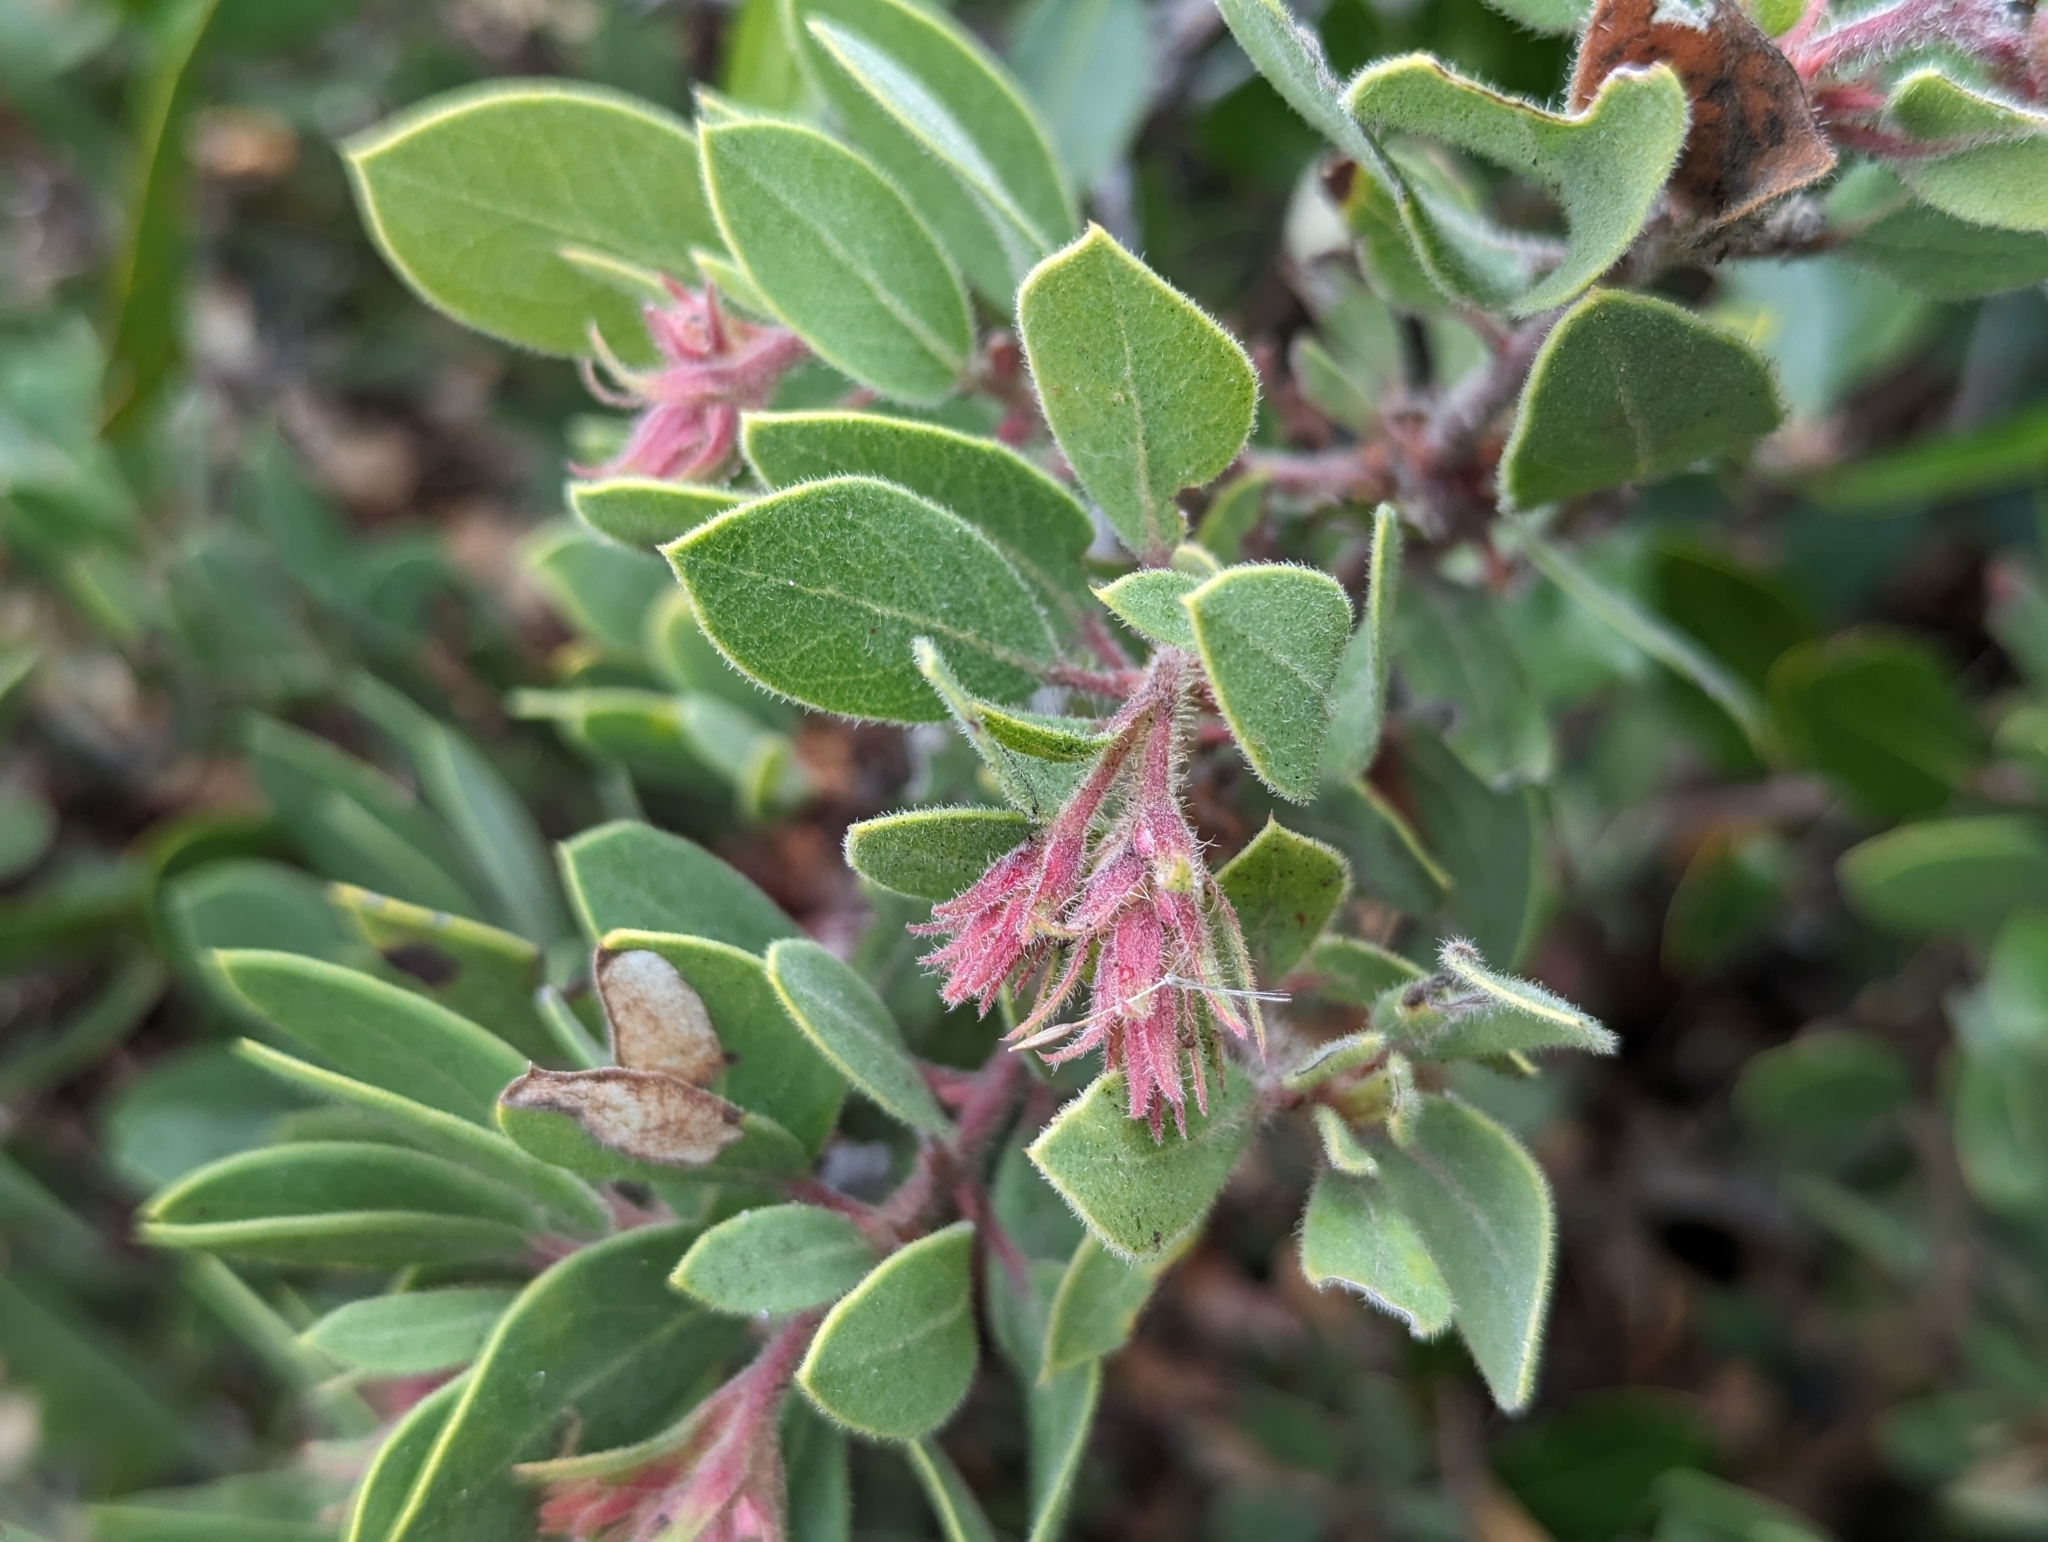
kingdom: Plantae
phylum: Tracheophyta
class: Magnoliopsida
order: Ericales
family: Ericaceae
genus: Arctostaphylos
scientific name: Arctostaphylos glandulosa
